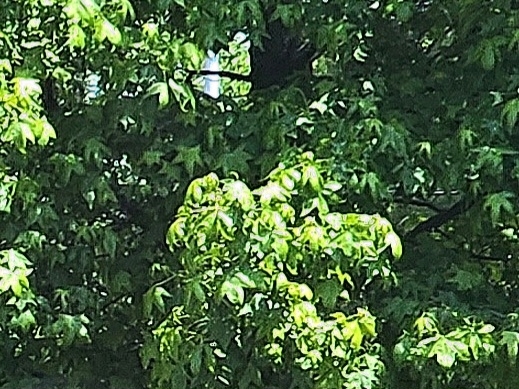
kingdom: Plantae
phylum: Tracheophyta
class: Magnoliopsida
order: Saxifragales
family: Altingiaceae
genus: Liquidambar
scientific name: Liquidambar styraciflua
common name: Sweet gum
